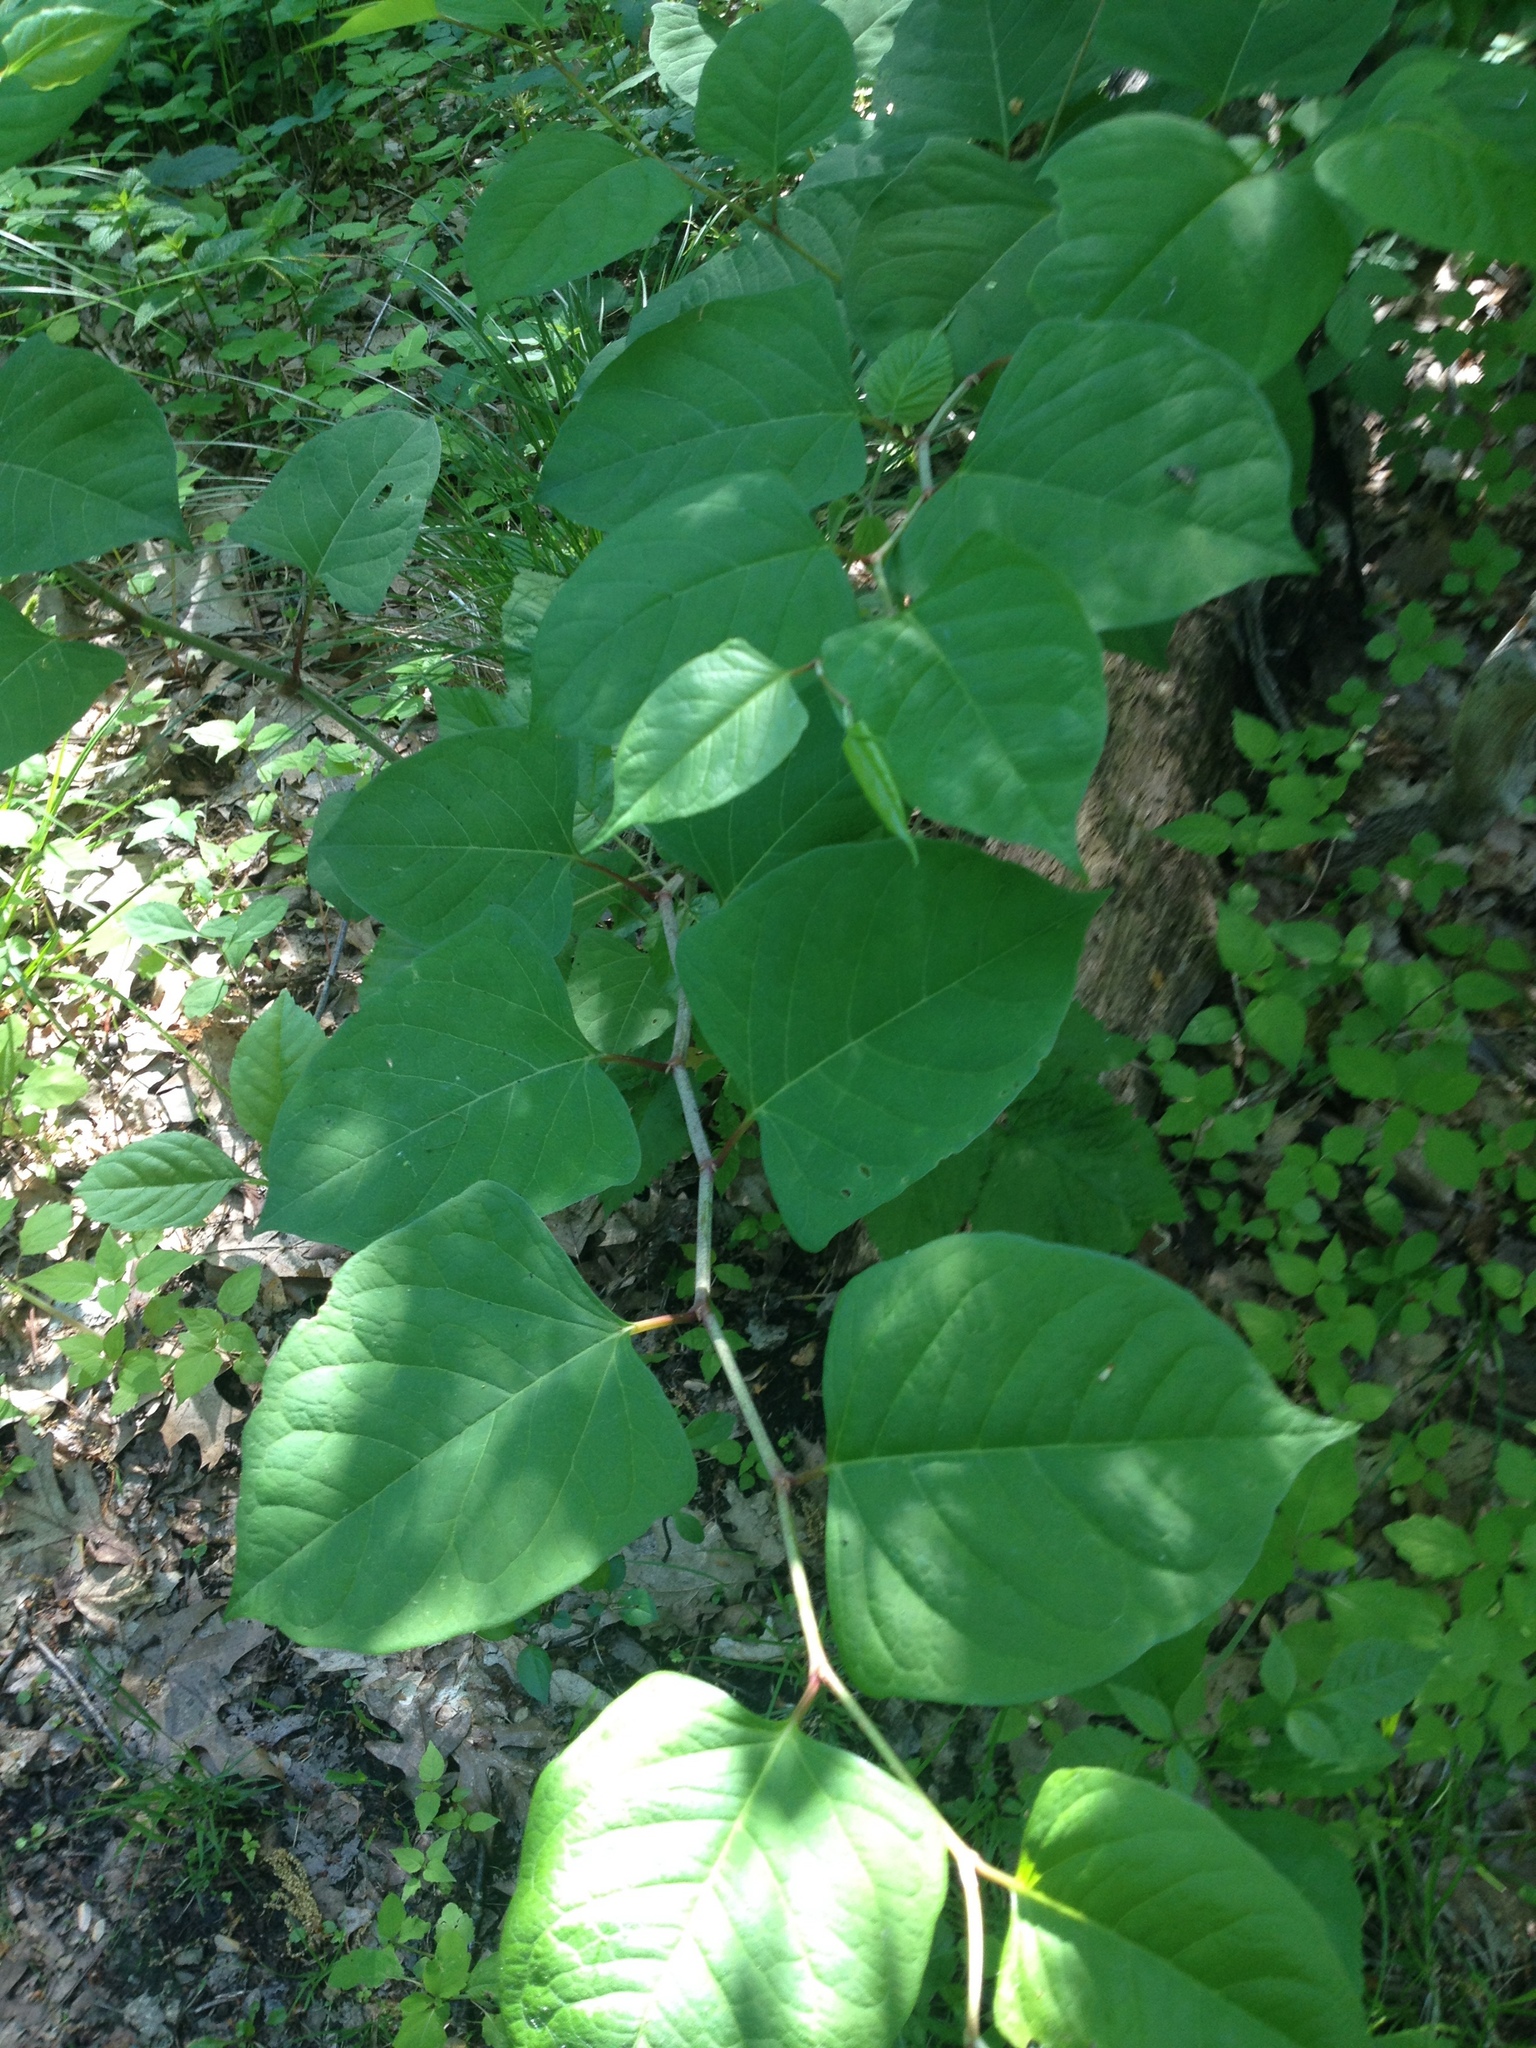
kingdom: Plantae
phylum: Tracheophyta
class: Magnoliopsida
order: Caryophyllales
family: Polygonaceae
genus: Reynoutria
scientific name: Reynoutria japonica
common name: Japanese knotweed
